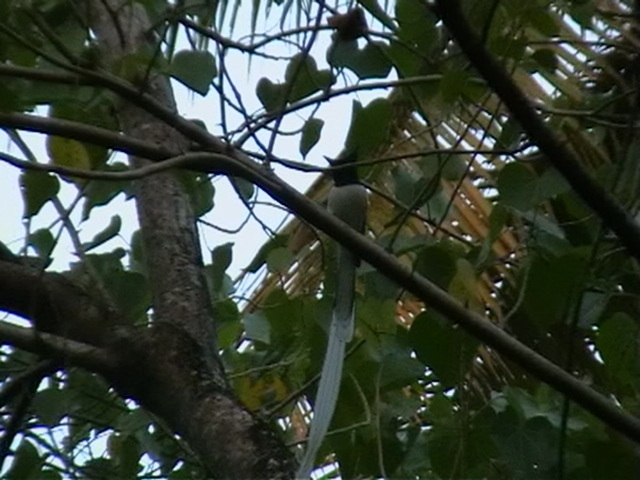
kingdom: Animalia
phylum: Chordata
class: Aves
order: Passeriformes
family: Monarchidae
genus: Terpsiphone
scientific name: Terpsiphone paradisi
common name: Indian paradise flycatcher
